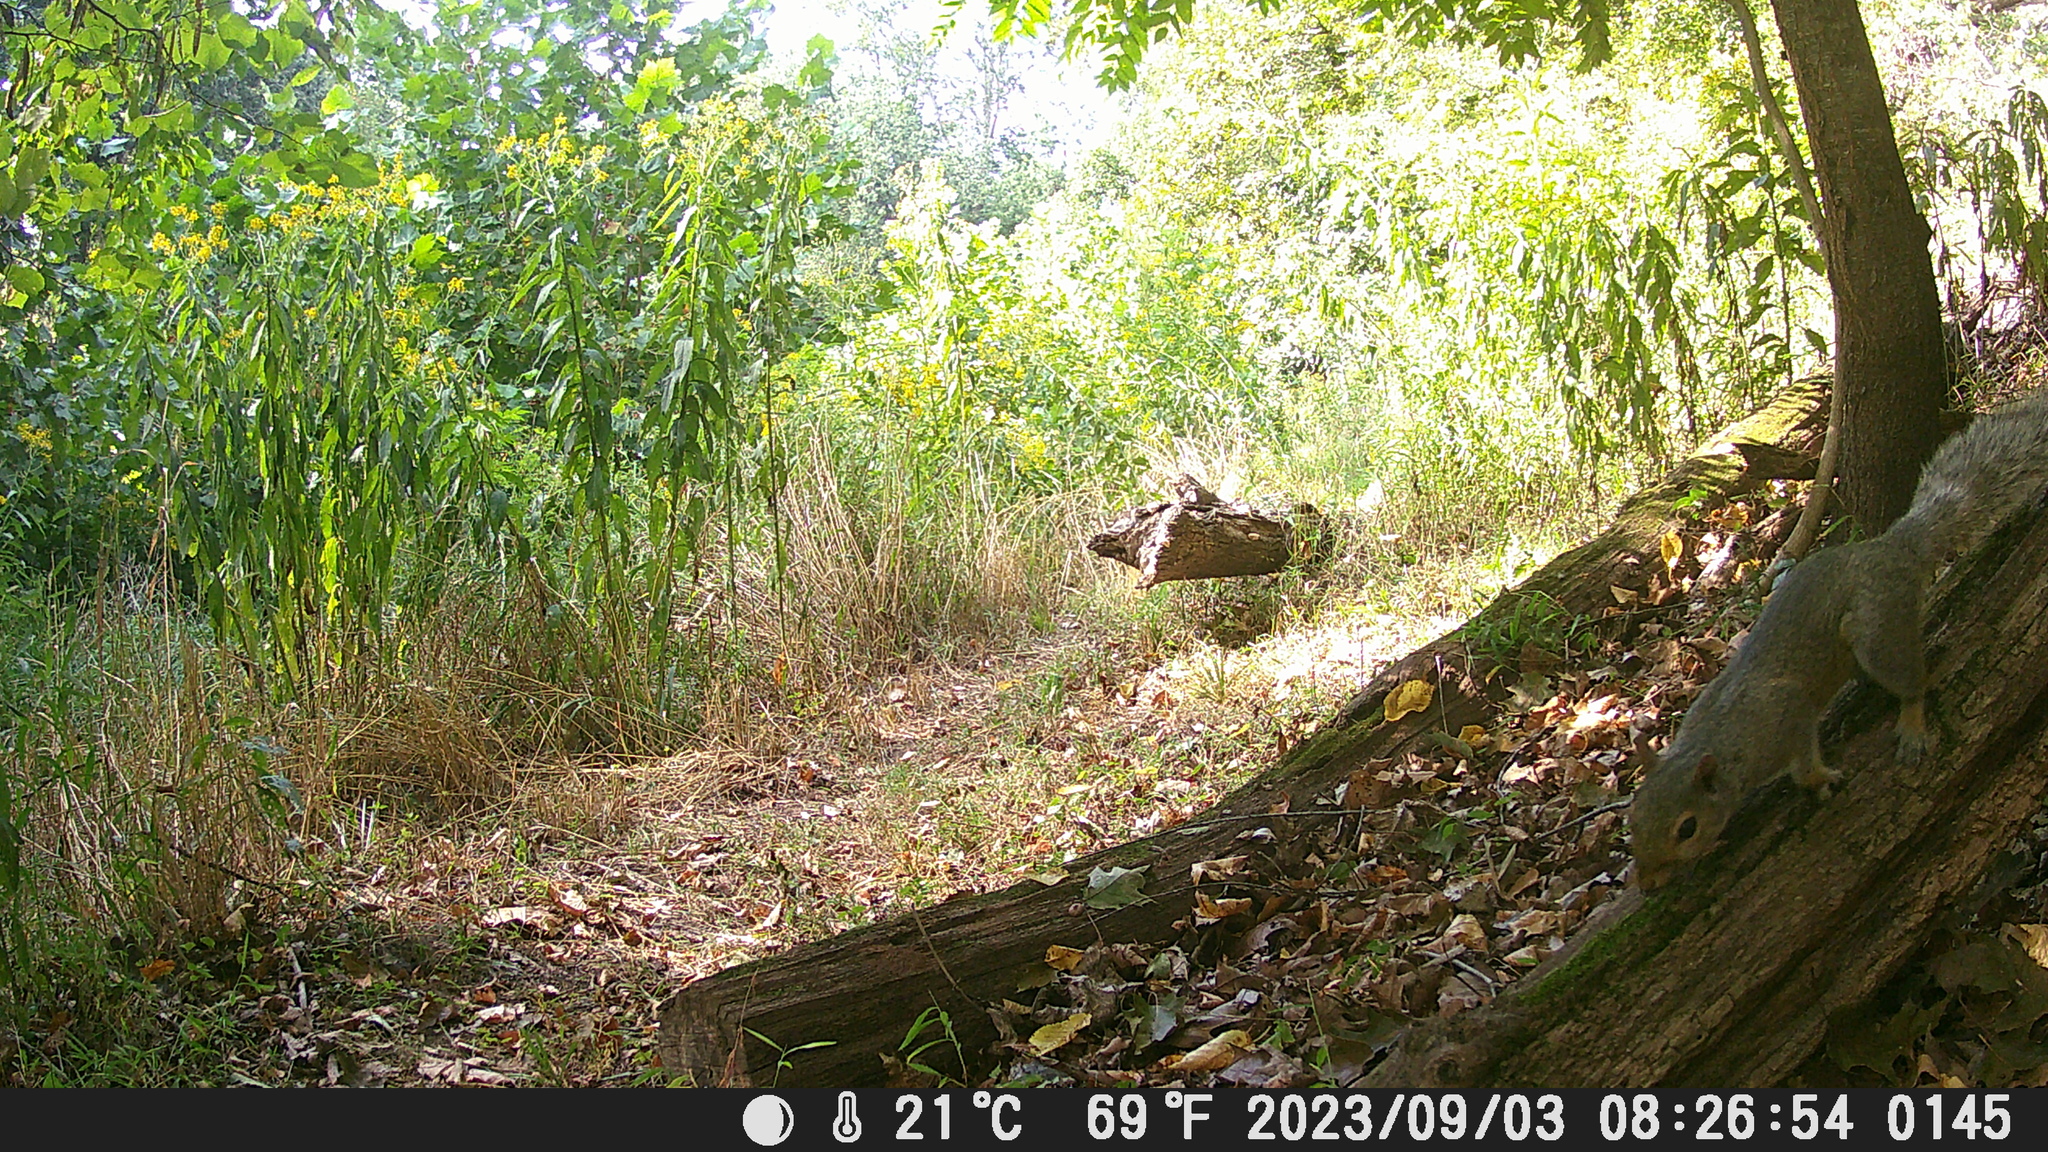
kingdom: Animalia
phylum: Chordata
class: Mammalia
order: Rodentia
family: Sciuridae
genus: Sciurus
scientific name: Sciurus carolinensis
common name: Eastern gray squirrel
